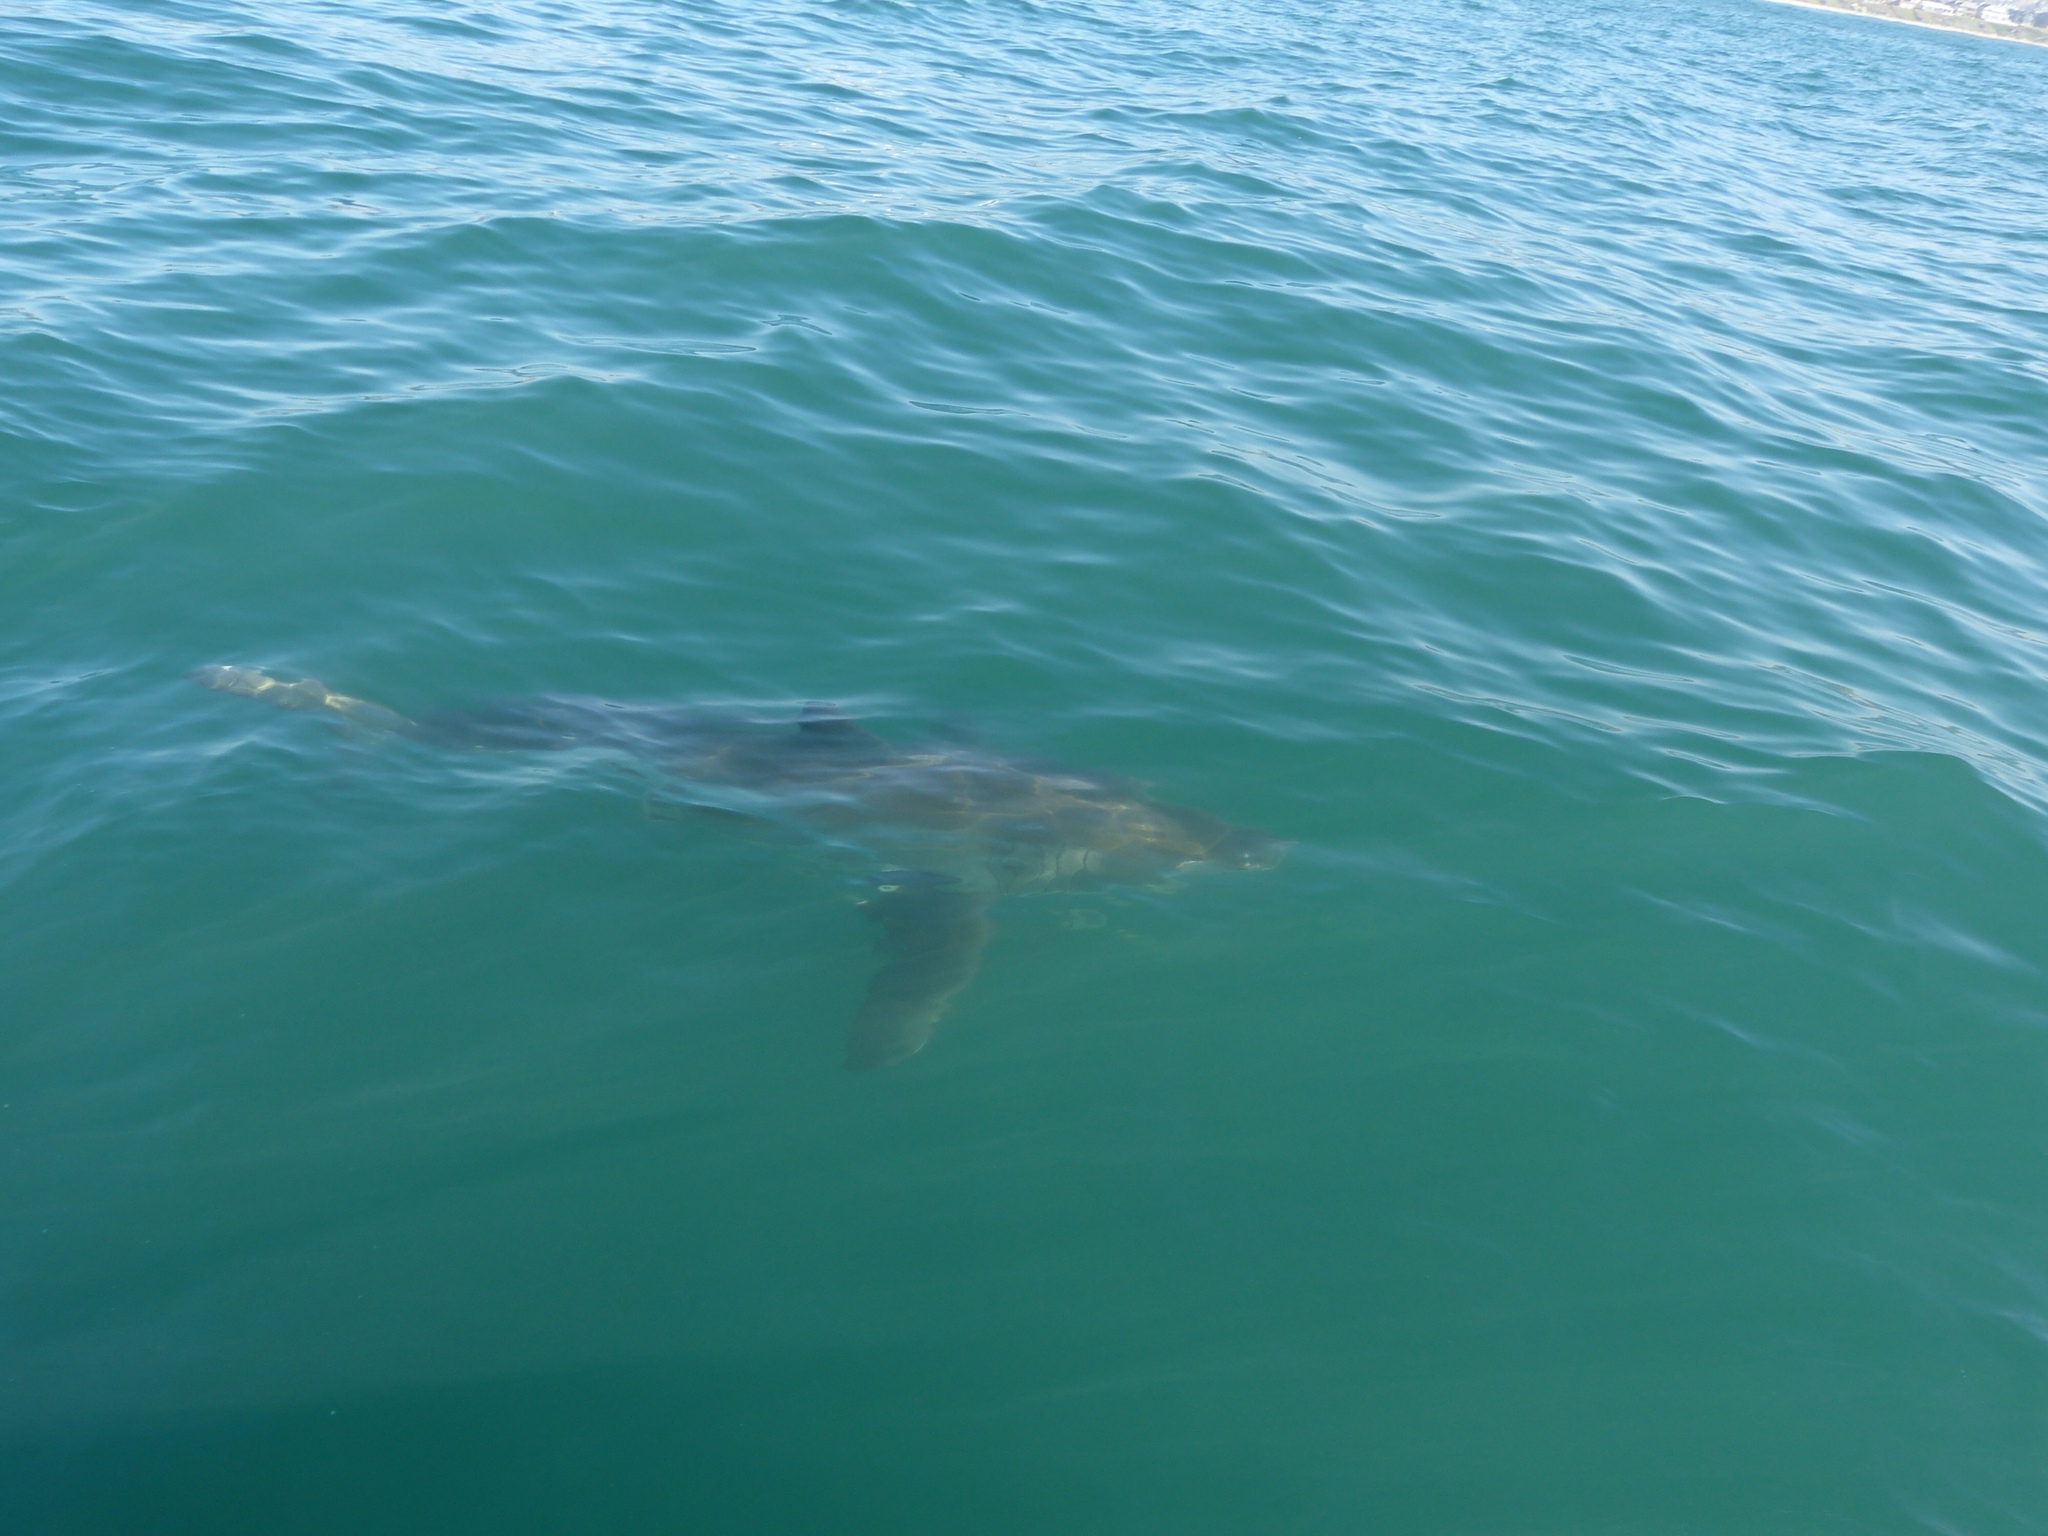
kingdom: Animalia
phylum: Chordata
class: Elasmobranchii
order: Lamniformes
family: Lamnidae
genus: Carcharodon
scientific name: Carcharodon carcharias
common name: Great white shark
